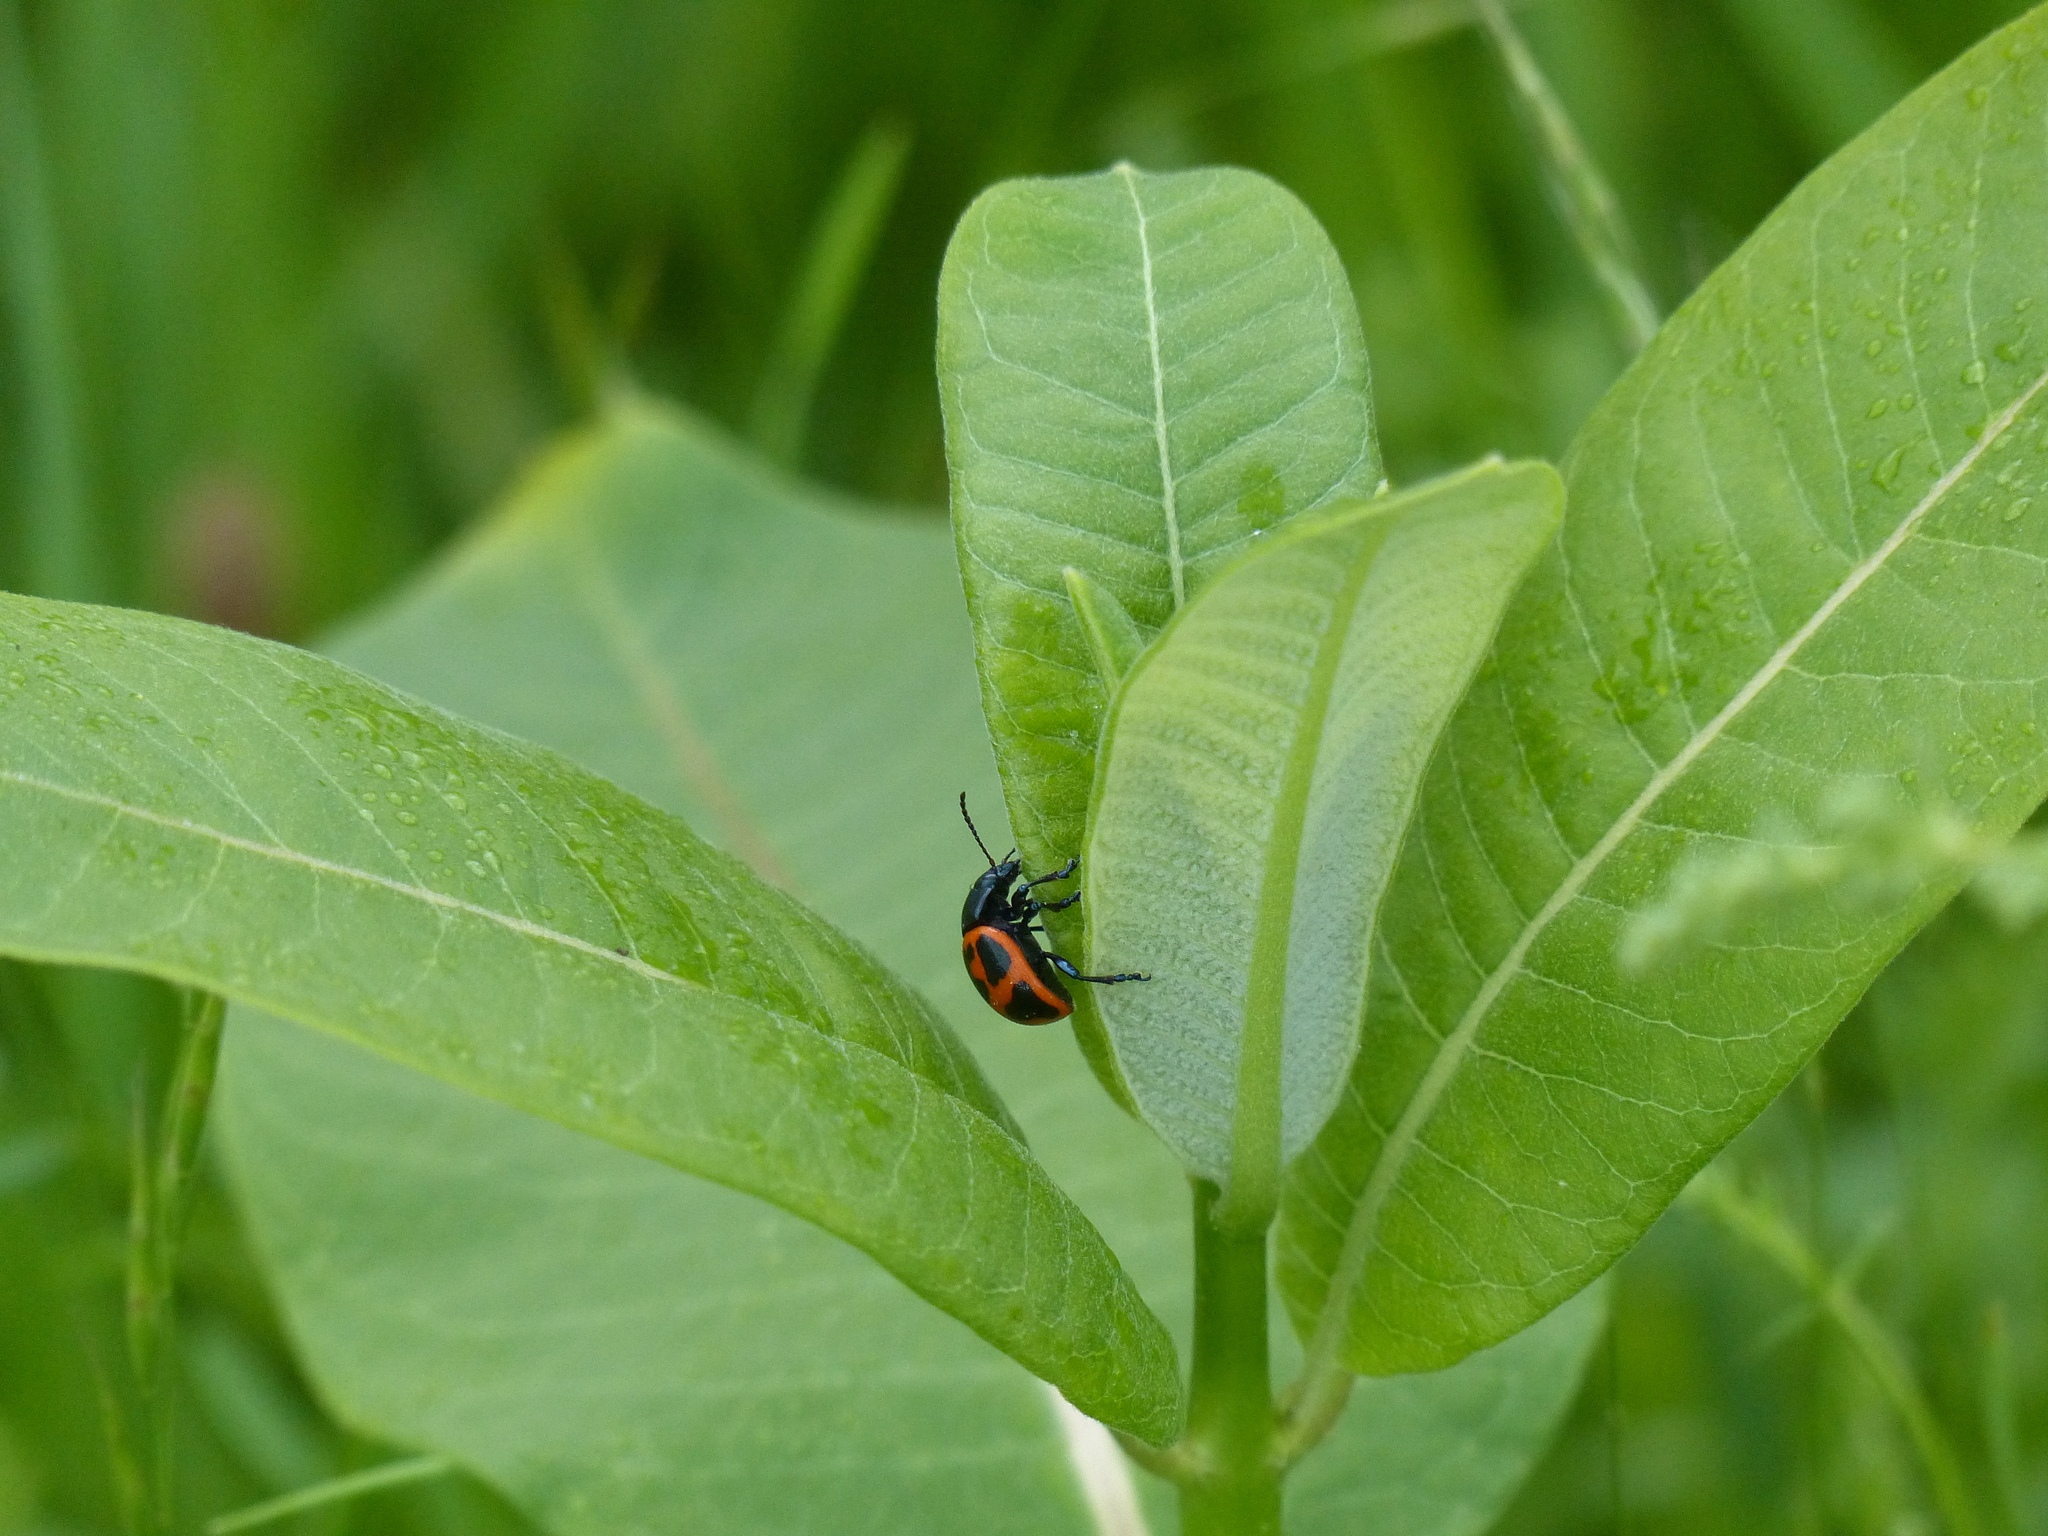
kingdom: Animalia
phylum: Arthropoda
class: Insecta
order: Coleoptera
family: Chrysomelidae
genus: Labidomera
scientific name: Labidomera clivicollis
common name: Swamp milkweed leaf beetle
